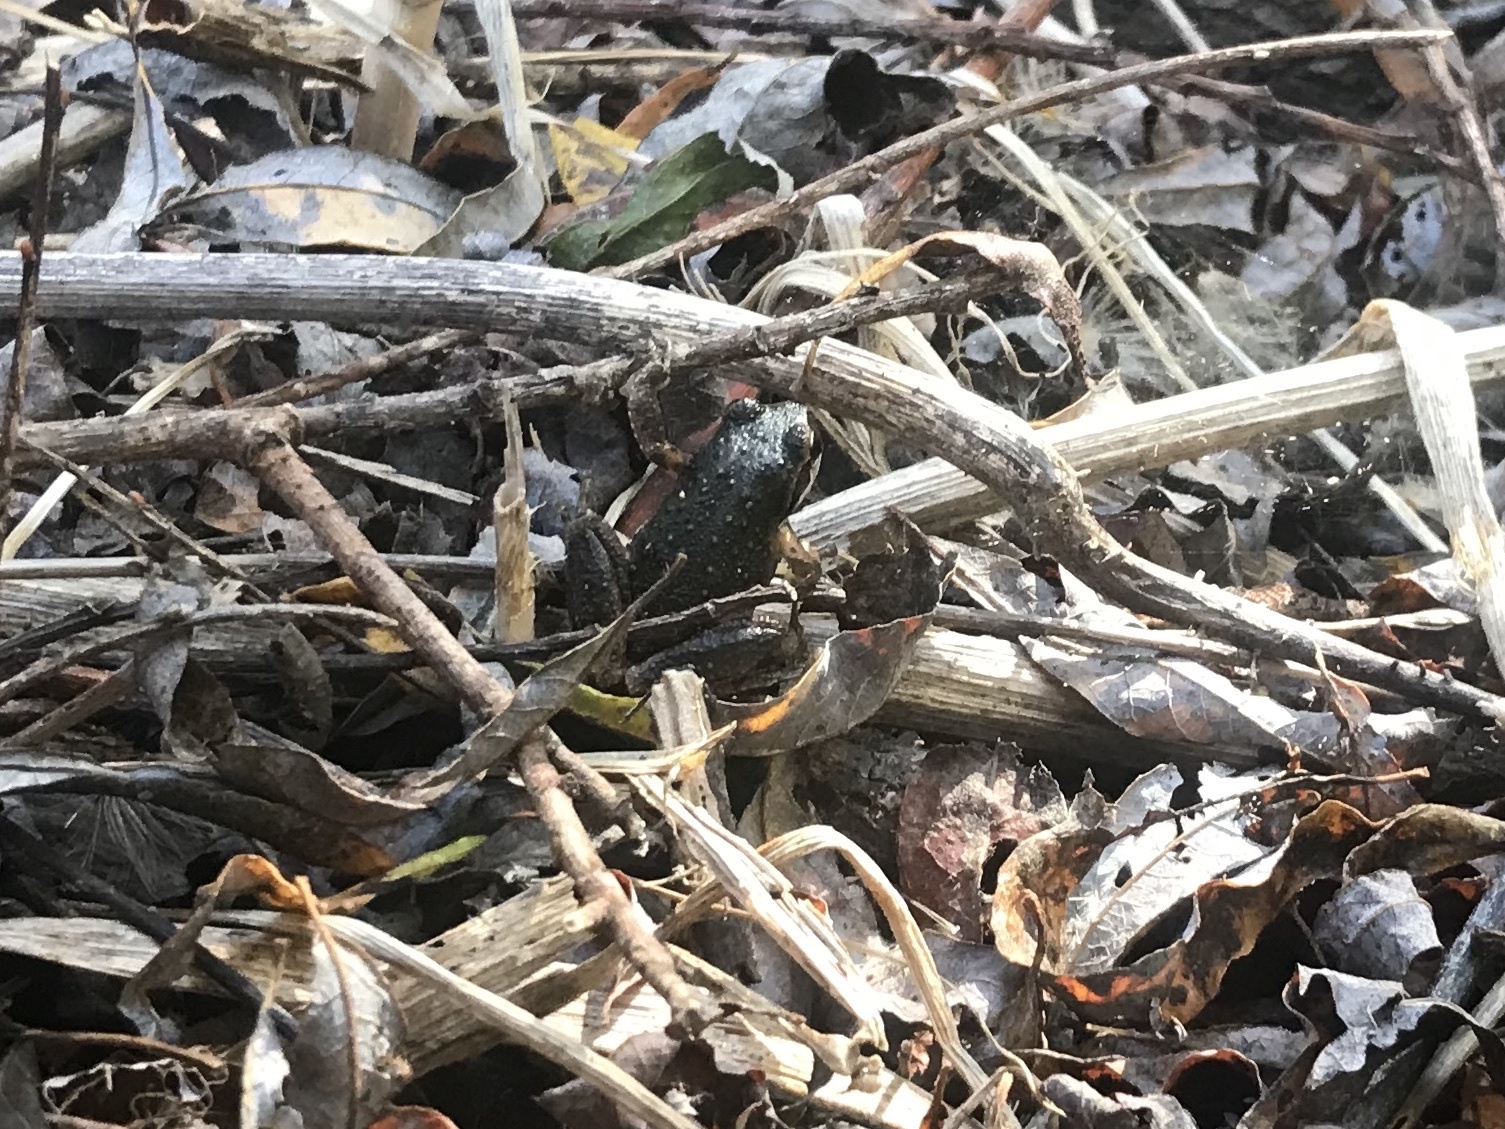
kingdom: Animalia
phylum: Chordata
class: Amphibia
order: Anura
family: Hylidae
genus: Pseudacris
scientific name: Pseudacris regilla
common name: Pacific chorus frog
